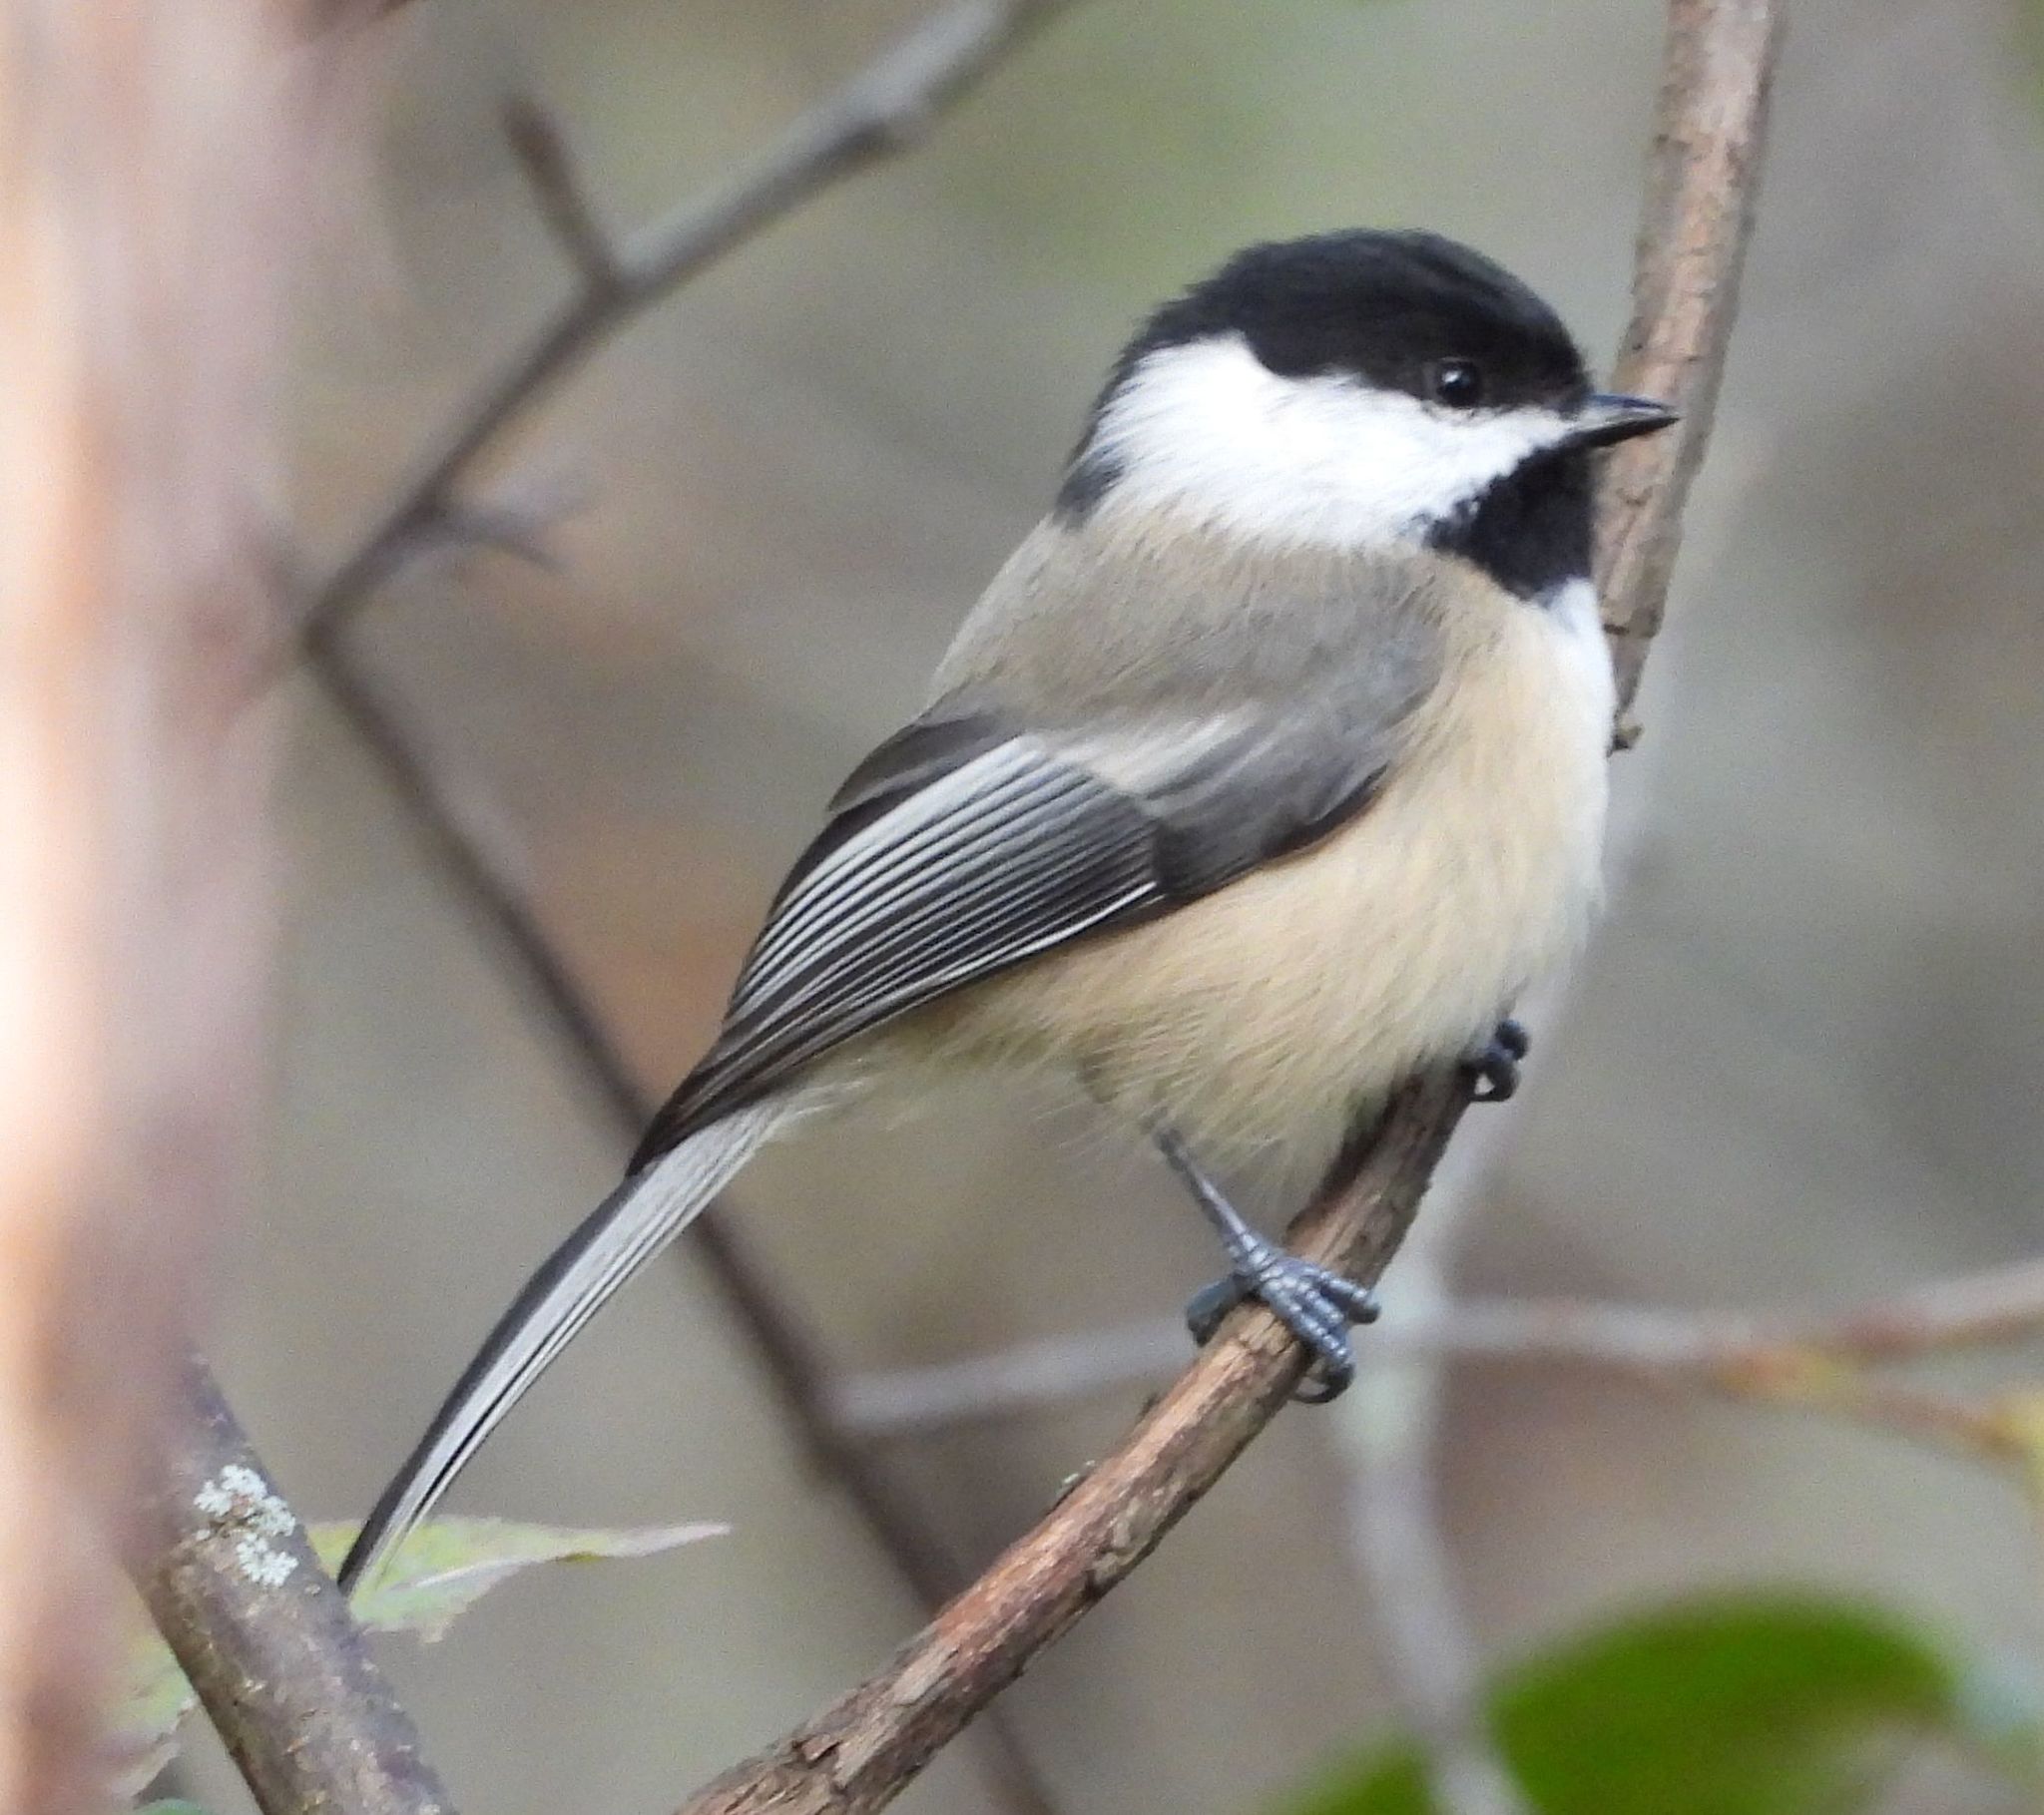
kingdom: Animalia
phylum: Chordata
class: Aves
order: Passeriformes
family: Paridae
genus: Poecile
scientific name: Poecile atricapillus
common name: Black-capped chickadee
